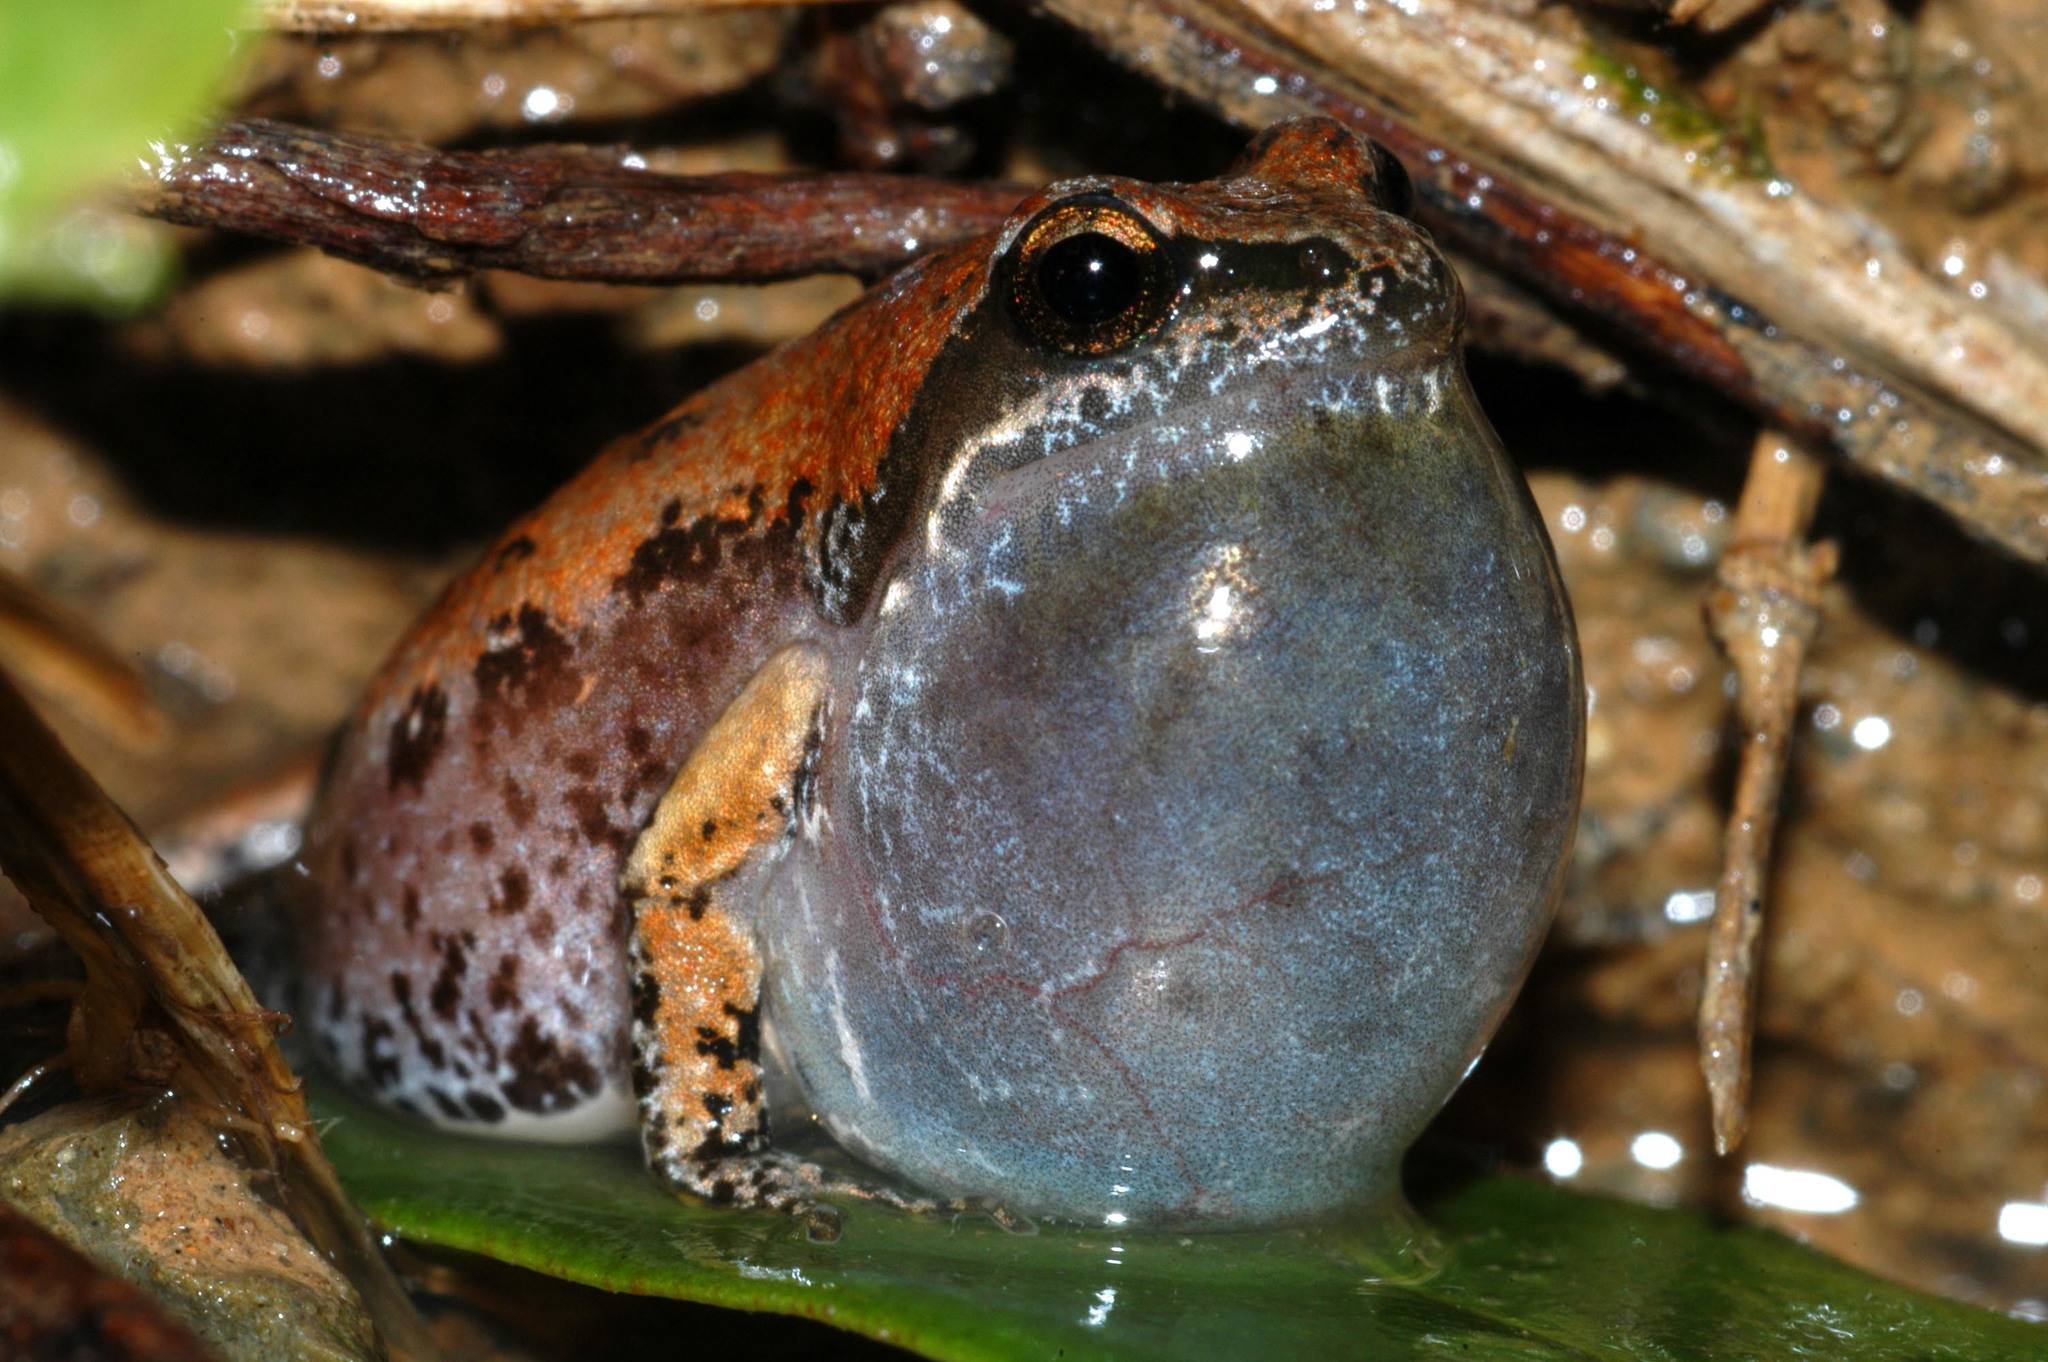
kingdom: Animalia
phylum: Chordata
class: Amphibia
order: Anura
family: Pyxicephalidae
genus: Cacosternum
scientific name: Cacosternum nanum
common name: Bronze dainty frog
